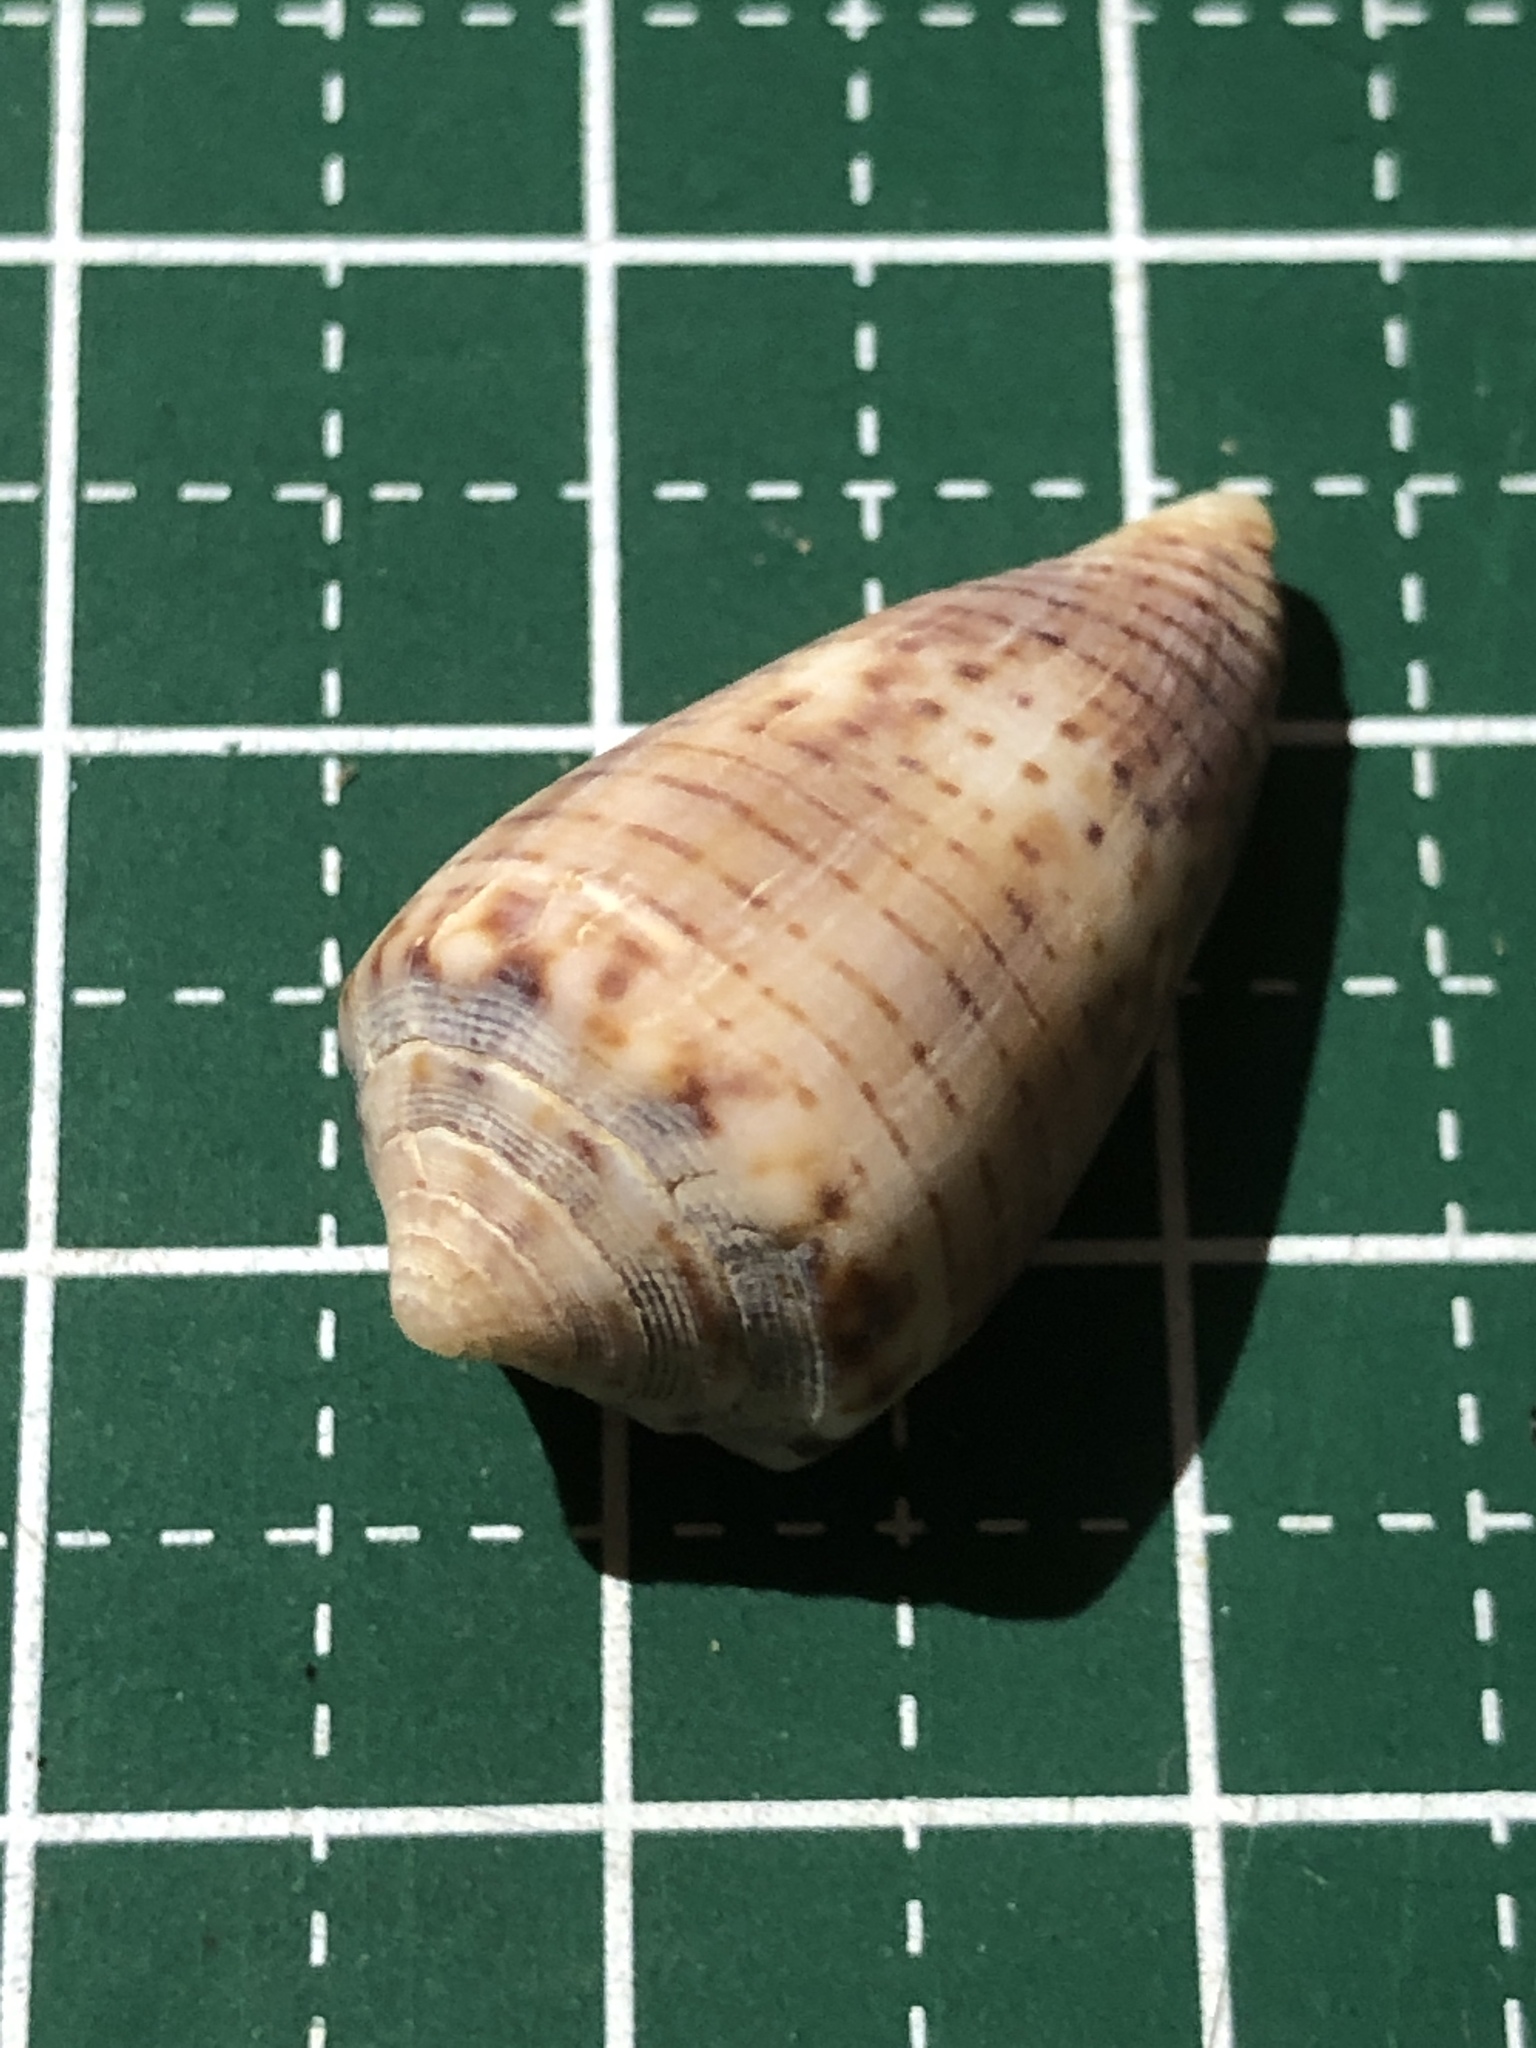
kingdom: Animalia
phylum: Mollusca
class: Gastropoda
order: Neogastropoda
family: Conidae
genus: Conus
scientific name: Conus pauperculus
